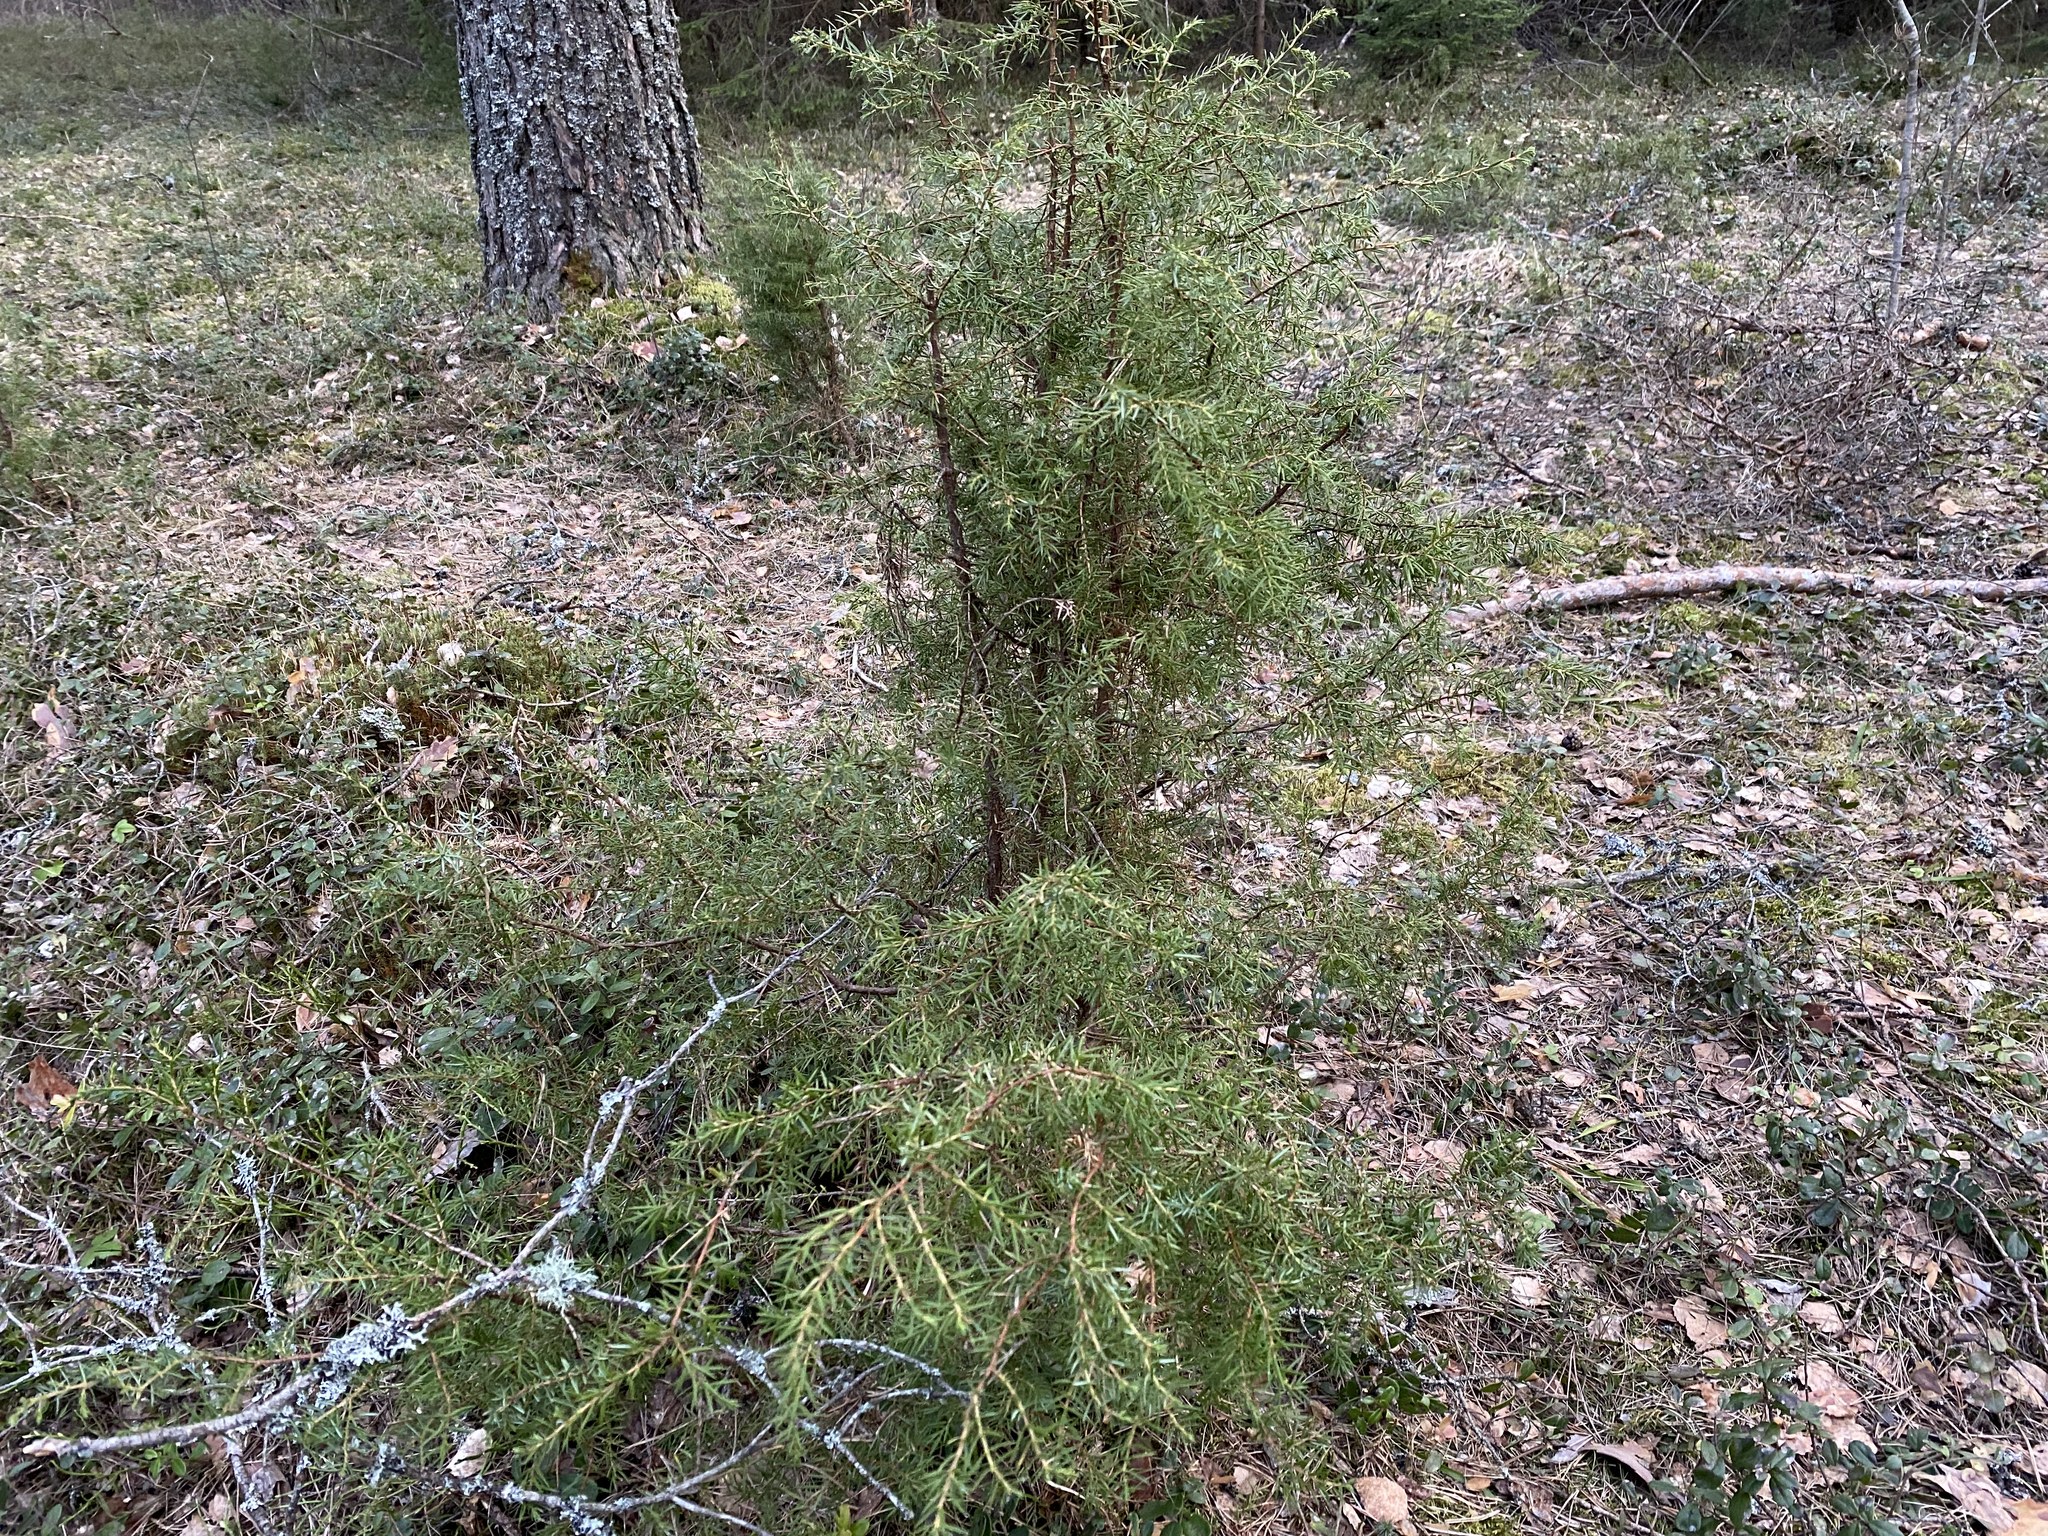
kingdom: Plantae
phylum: Tracheophyta
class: Pinopsida
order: Pinales
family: Cupressaceae
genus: Juniperus
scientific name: Juniperus communis
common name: Common juniper
